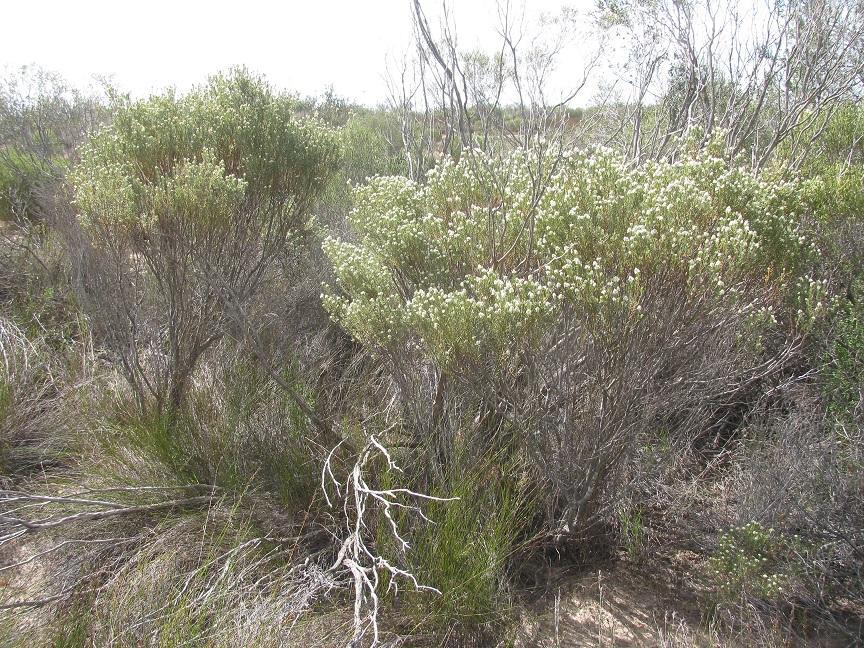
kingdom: Plantae
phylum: Tracheophyta
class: Magnoliopsida
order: Rosales
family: Rhamnaceae
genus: Phylica
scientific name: Phylica rigidifolia
